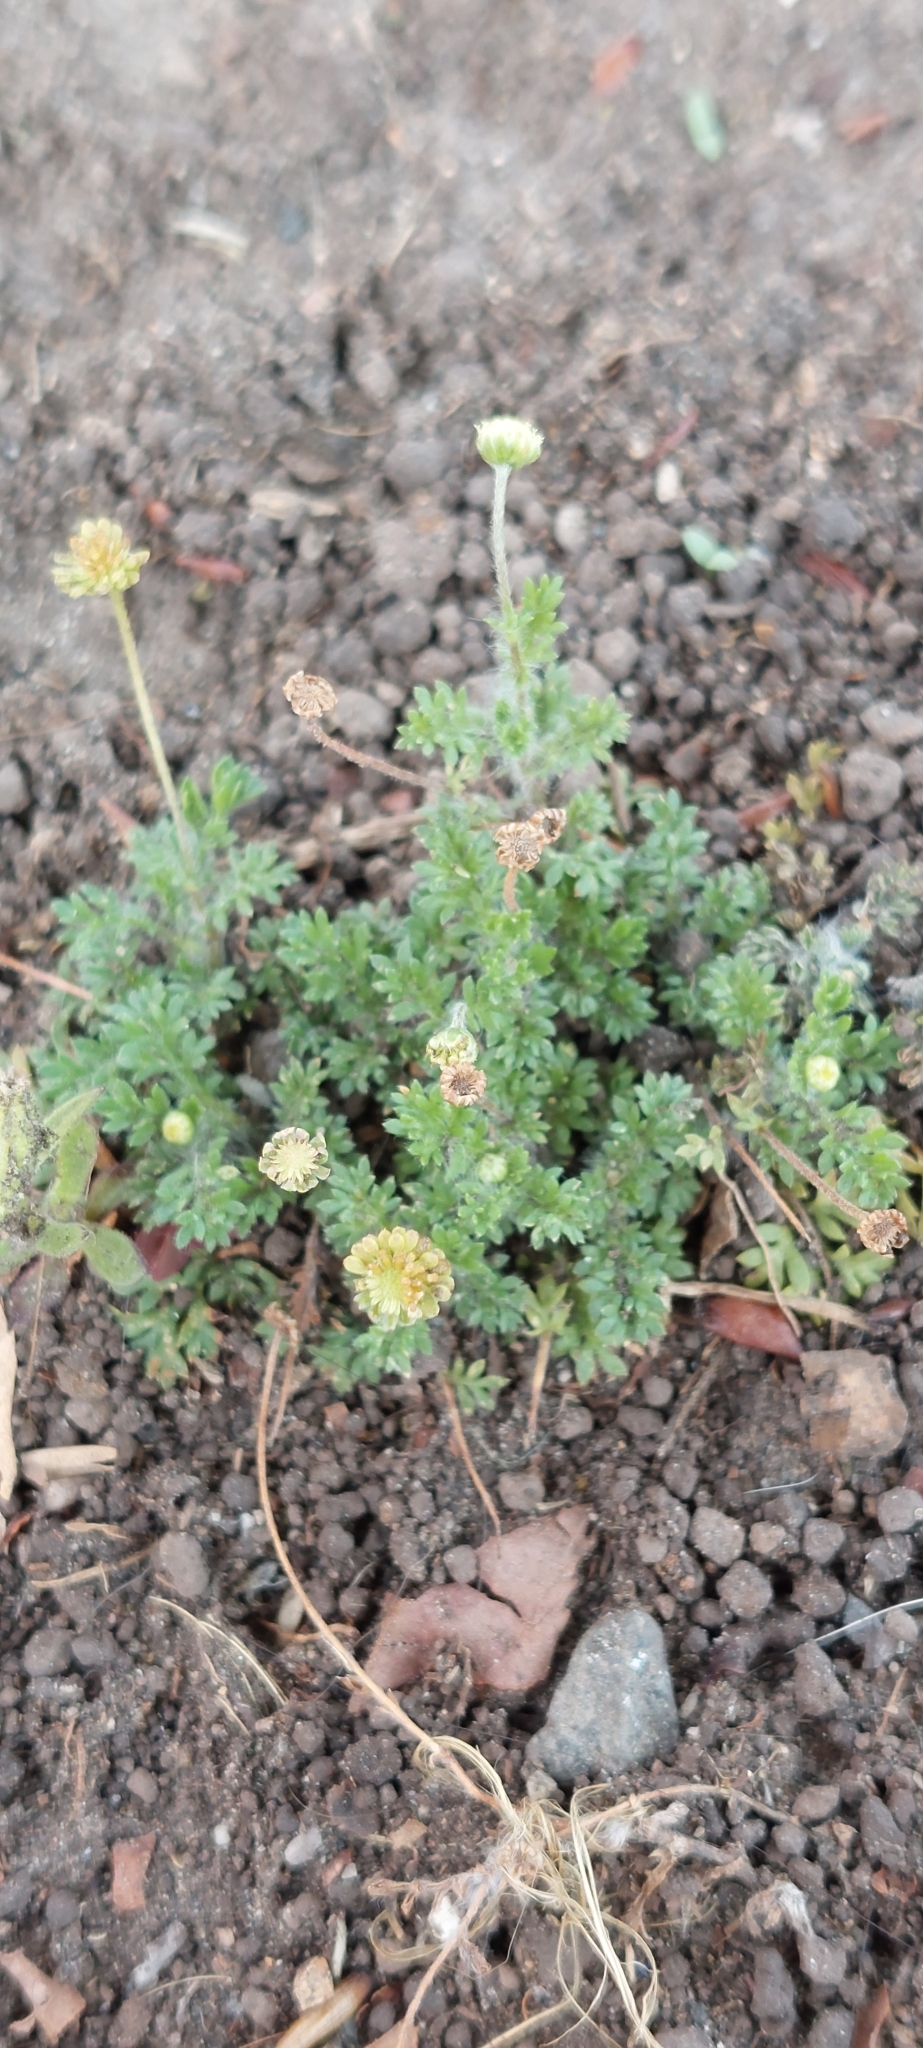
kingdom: Plantae
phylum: Tracheophyta
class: Magnoliopsida
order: Asterales
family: Asteraceae
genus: Cotula
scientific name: Cotula australis
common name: Australian waterbuttons
